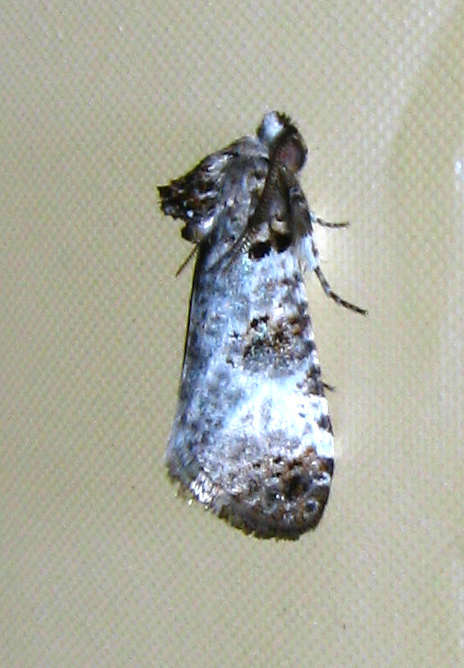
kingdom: Animalia
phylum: Arthropoda
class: Insecta
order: Lepidoptera
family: Cossidae
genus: Idioses
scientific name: Idioses littleri
